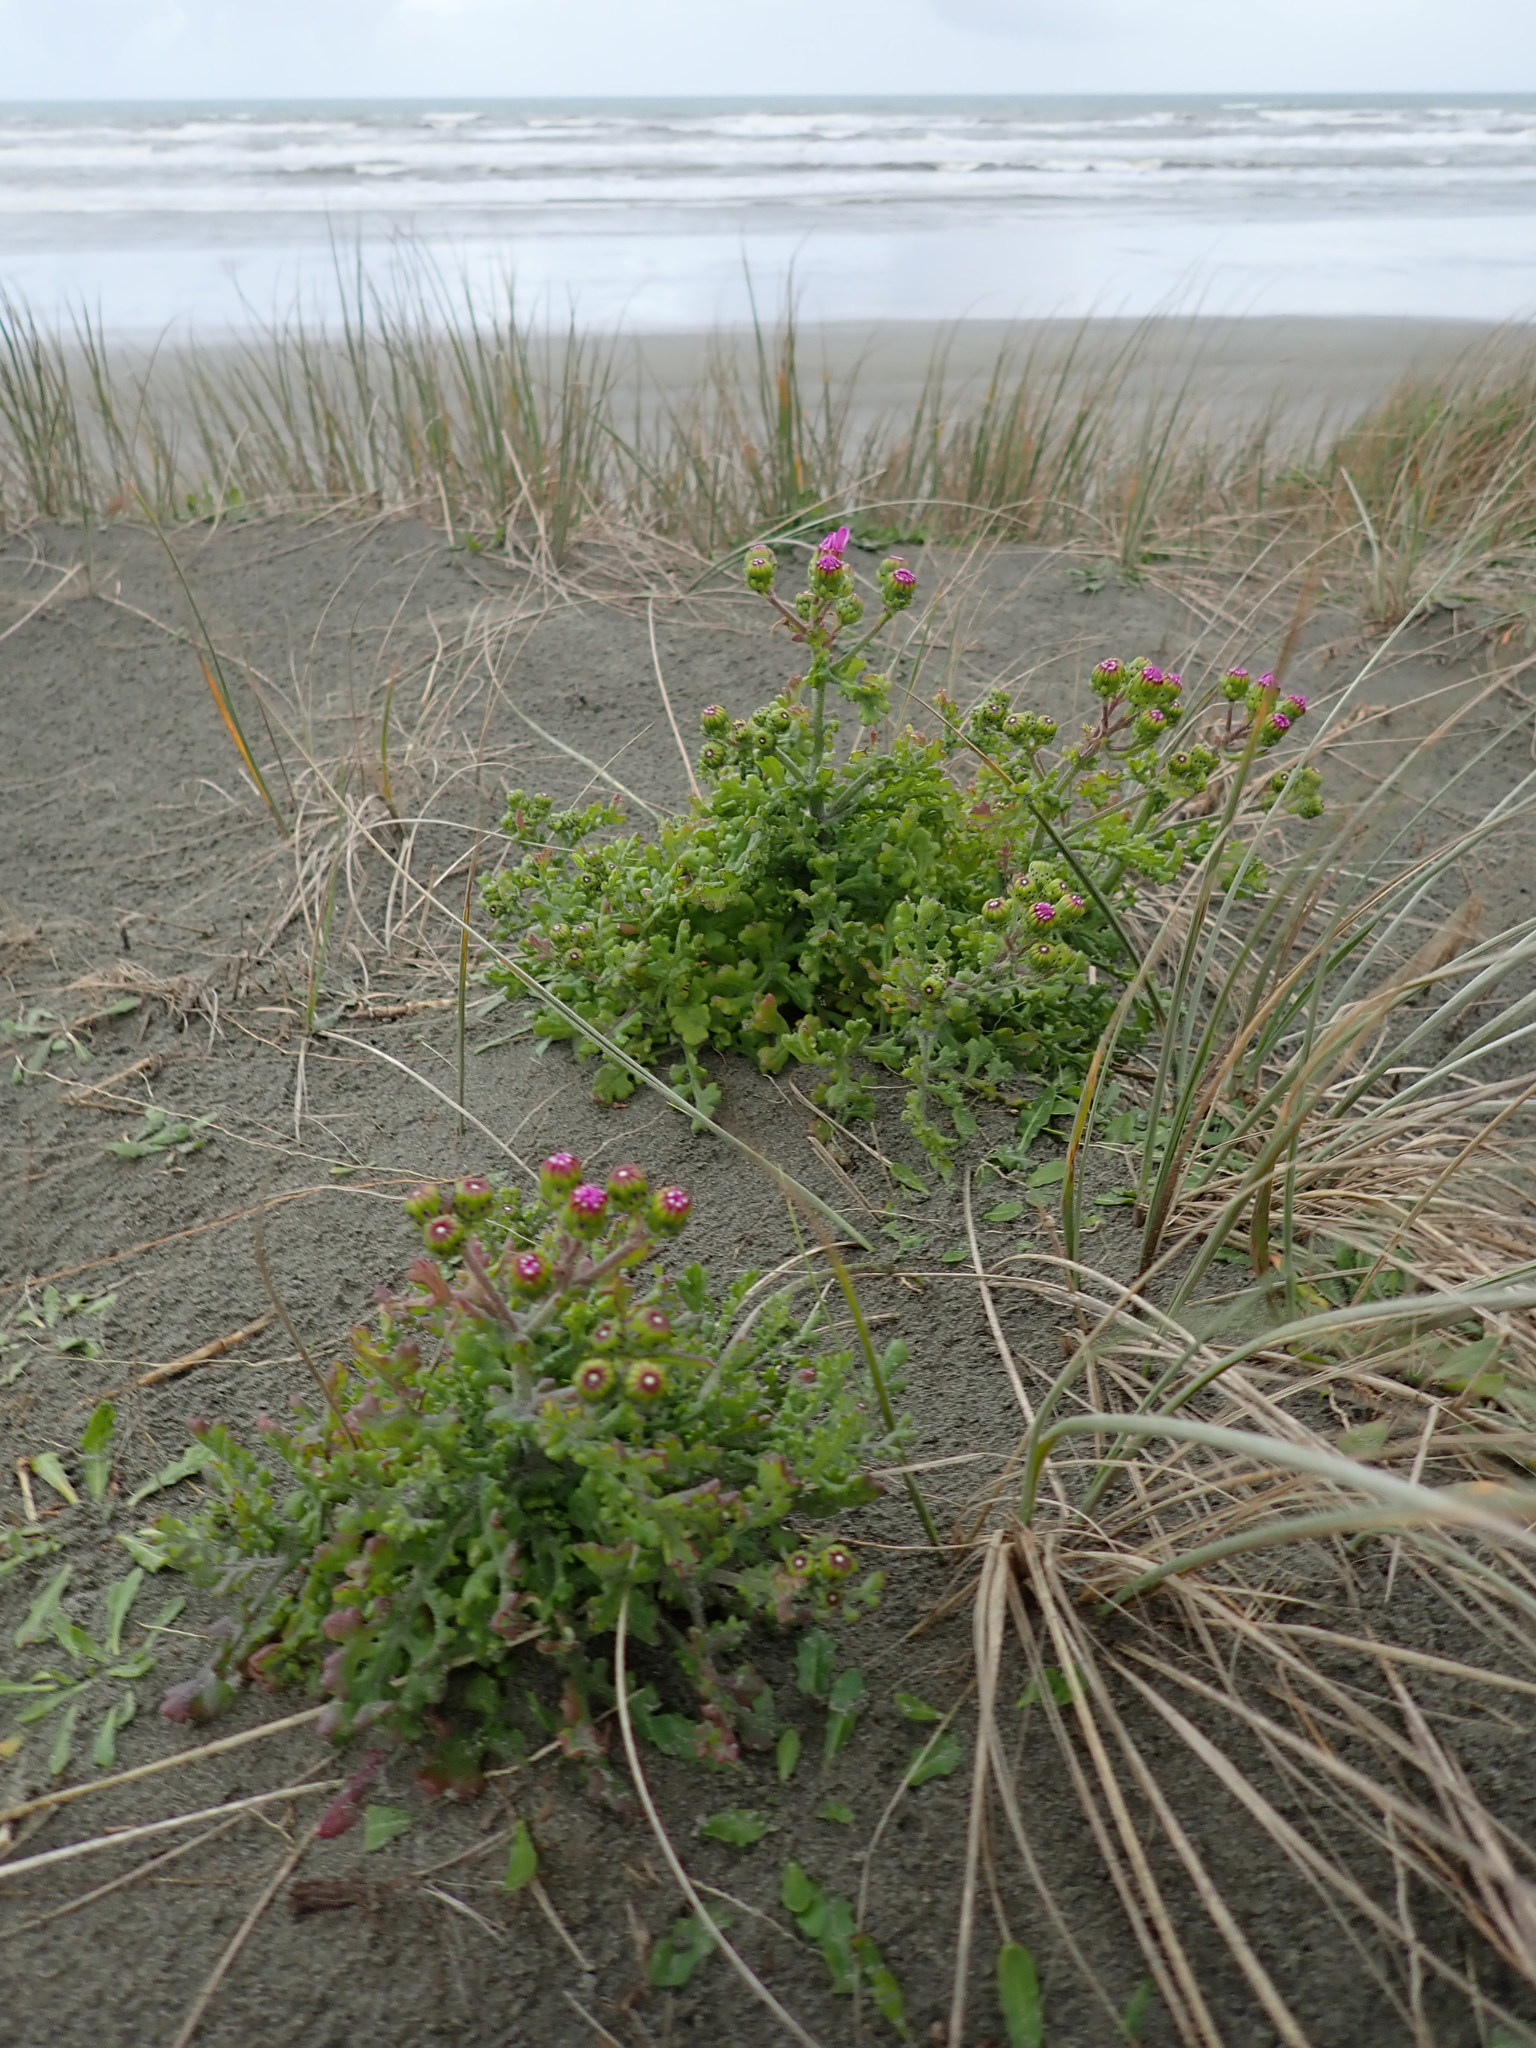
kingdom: Plantae
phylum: Tracheophyta
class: Magnoliopsida
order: Asterales
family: Asteraceae
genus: Senecio
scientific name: Senecio elegans
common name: Purple groundsel
